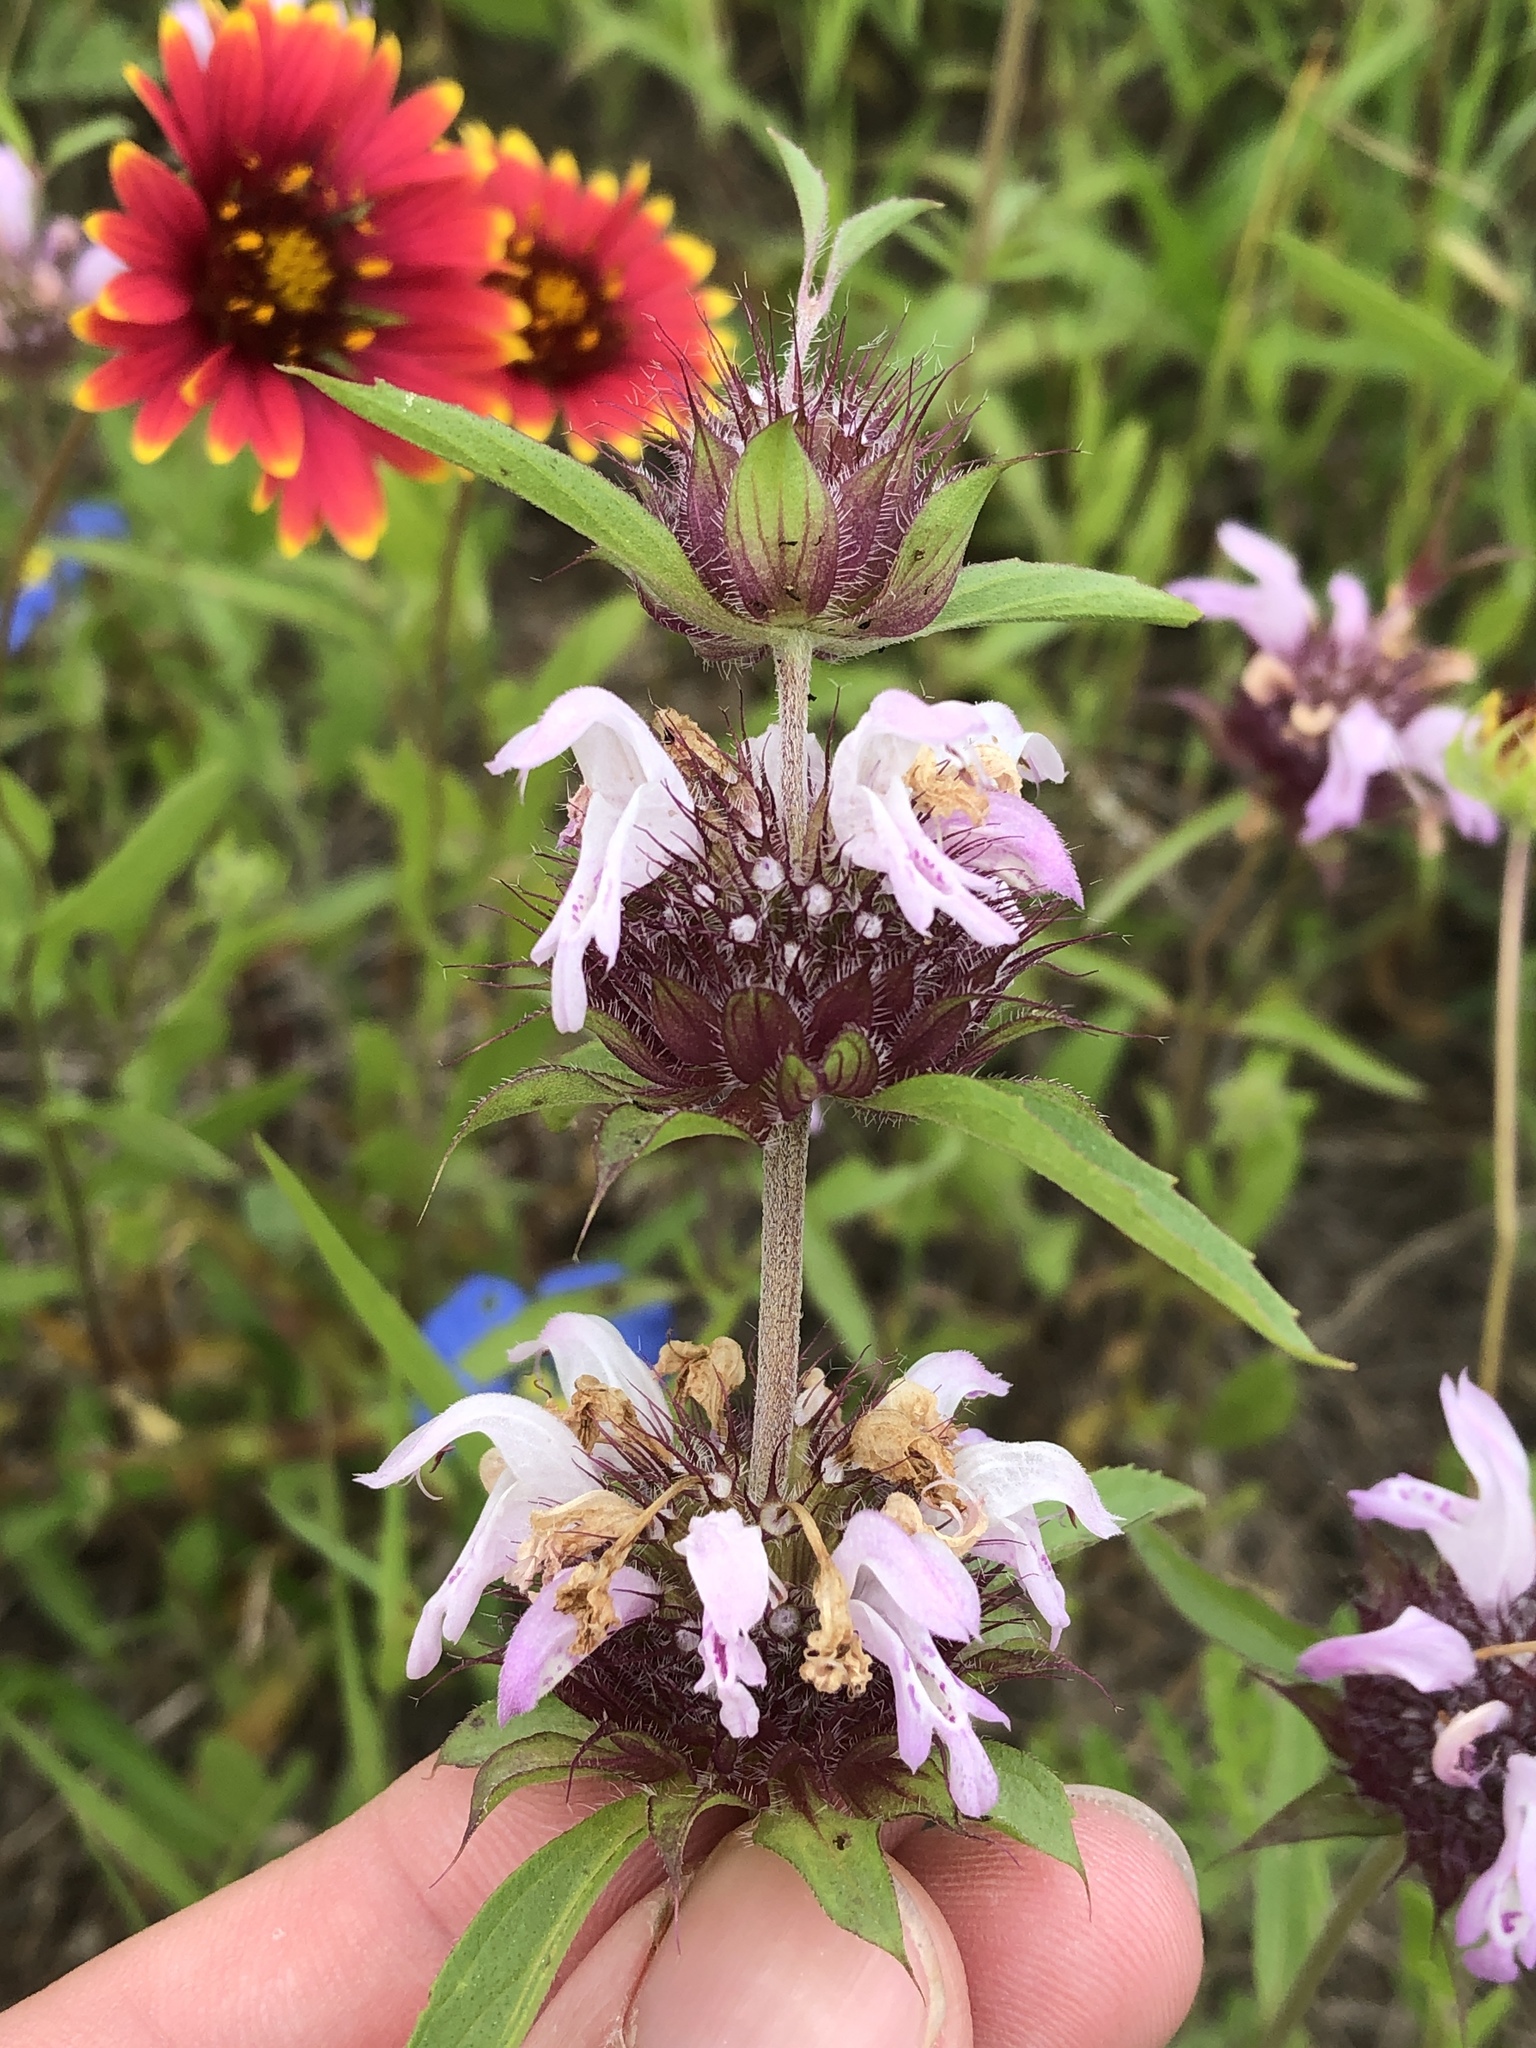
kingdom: Plantae
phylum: Tracheophyta
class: Magnoliopsida
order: Lamiales
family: Lamiaceae
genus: Monarda
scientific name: Monarda clinopodioides
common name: Basil beebalm
